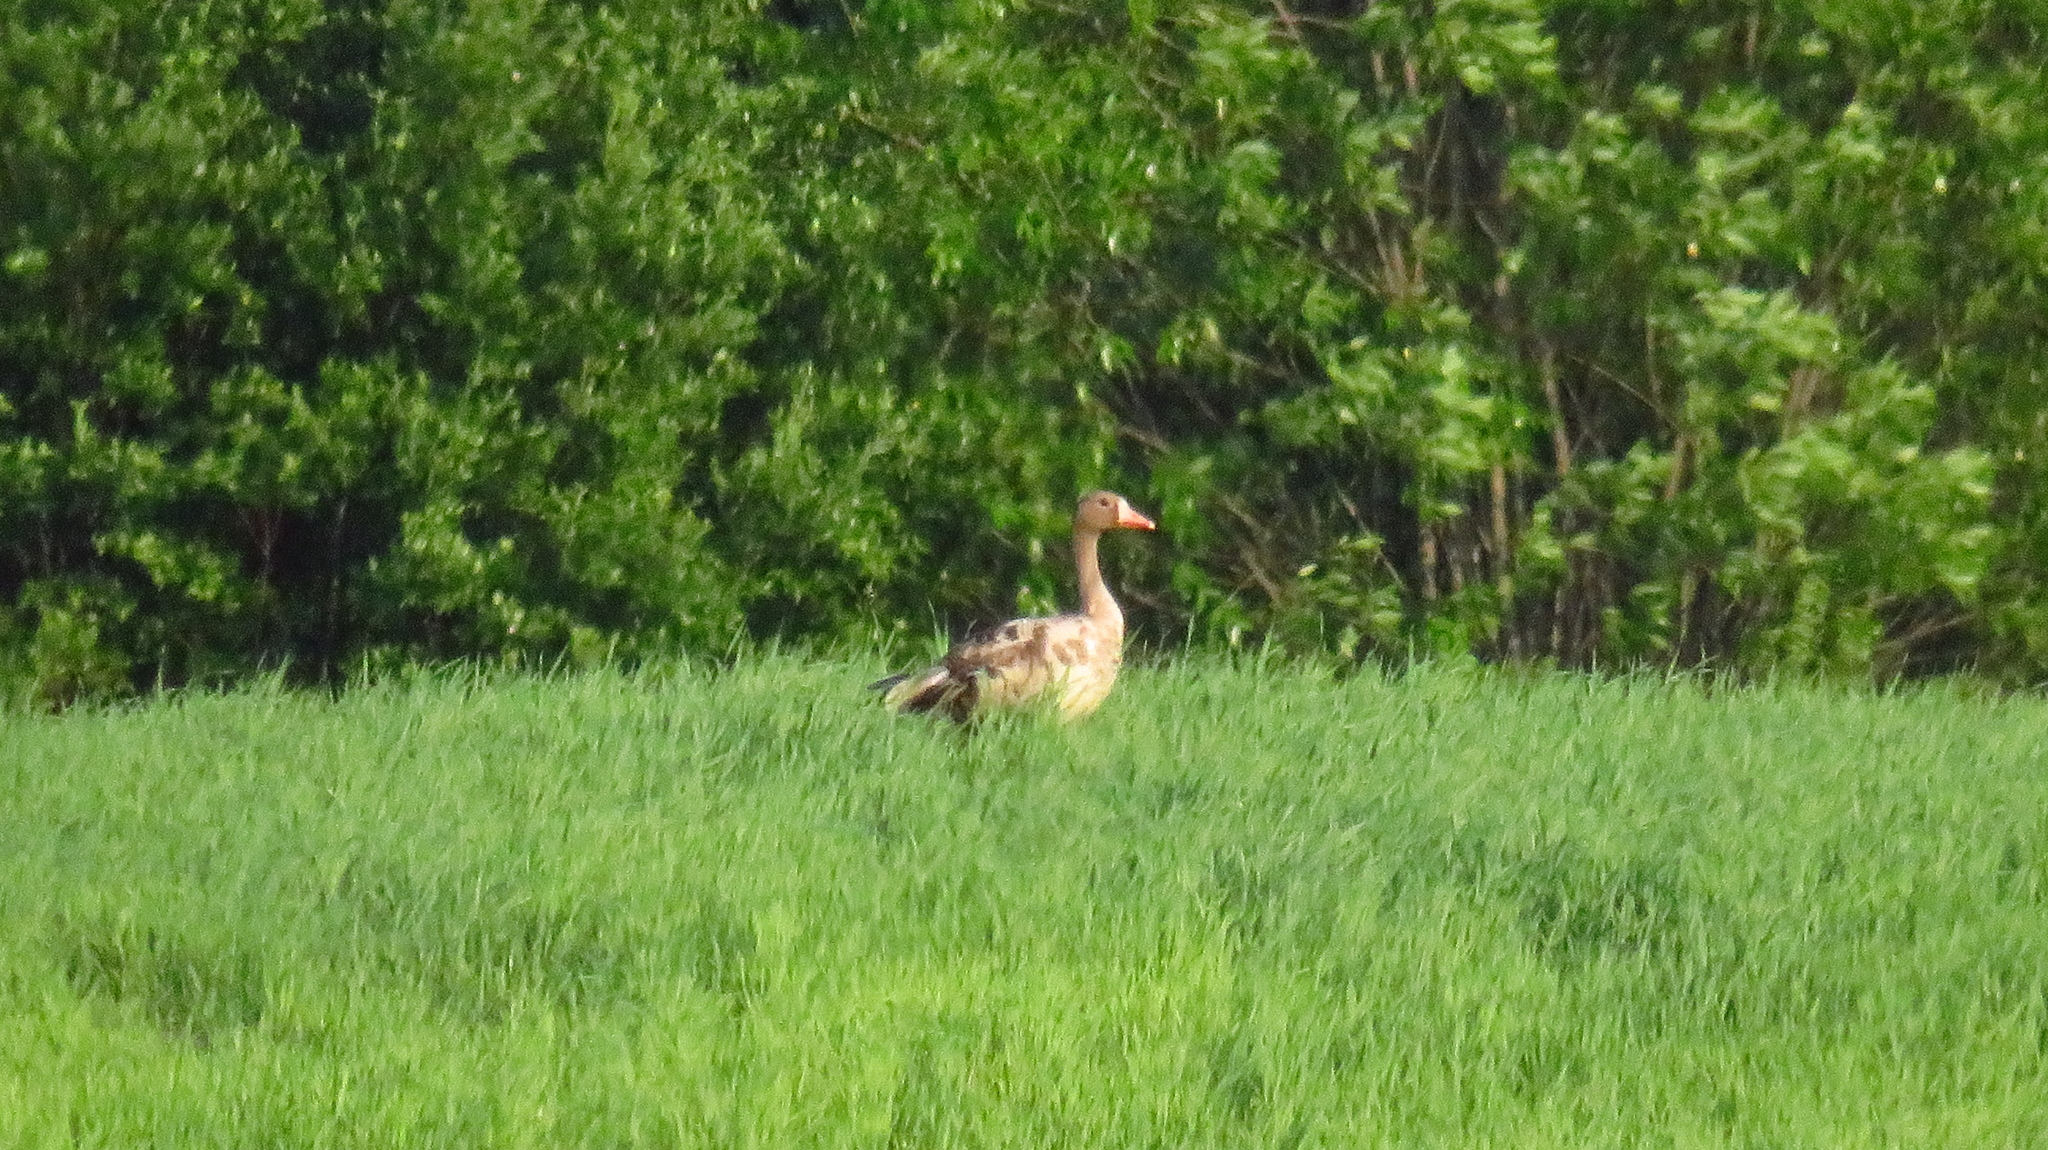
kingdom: Animalia
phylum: Chordata
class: Aves
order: Anseriformes
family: Anatidae
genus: Anser
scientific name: Anser albifrons
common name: Greater white-fronted goose
